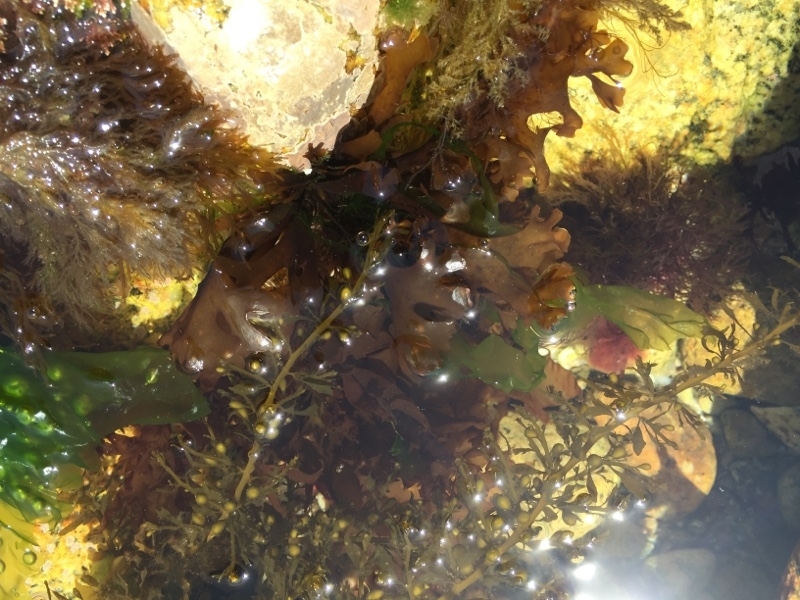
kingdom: Chromista
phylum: Ochrophyta
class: Phaeophyceae
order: Fucales
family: Sargassaceae
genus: Sargassum
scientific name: Sargassum muticum
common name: Japweed
